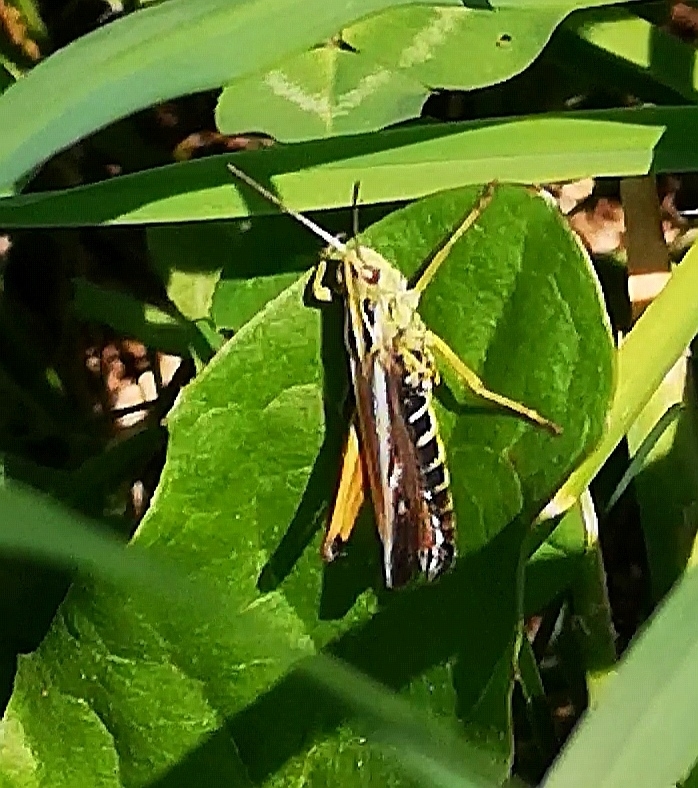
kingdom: Animalia
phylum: Arthropoda
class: Insecta
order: Orthoptera
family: Acrididae
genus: Omocestus
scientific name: Omocestus viridulus
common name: Common green grasshopper
